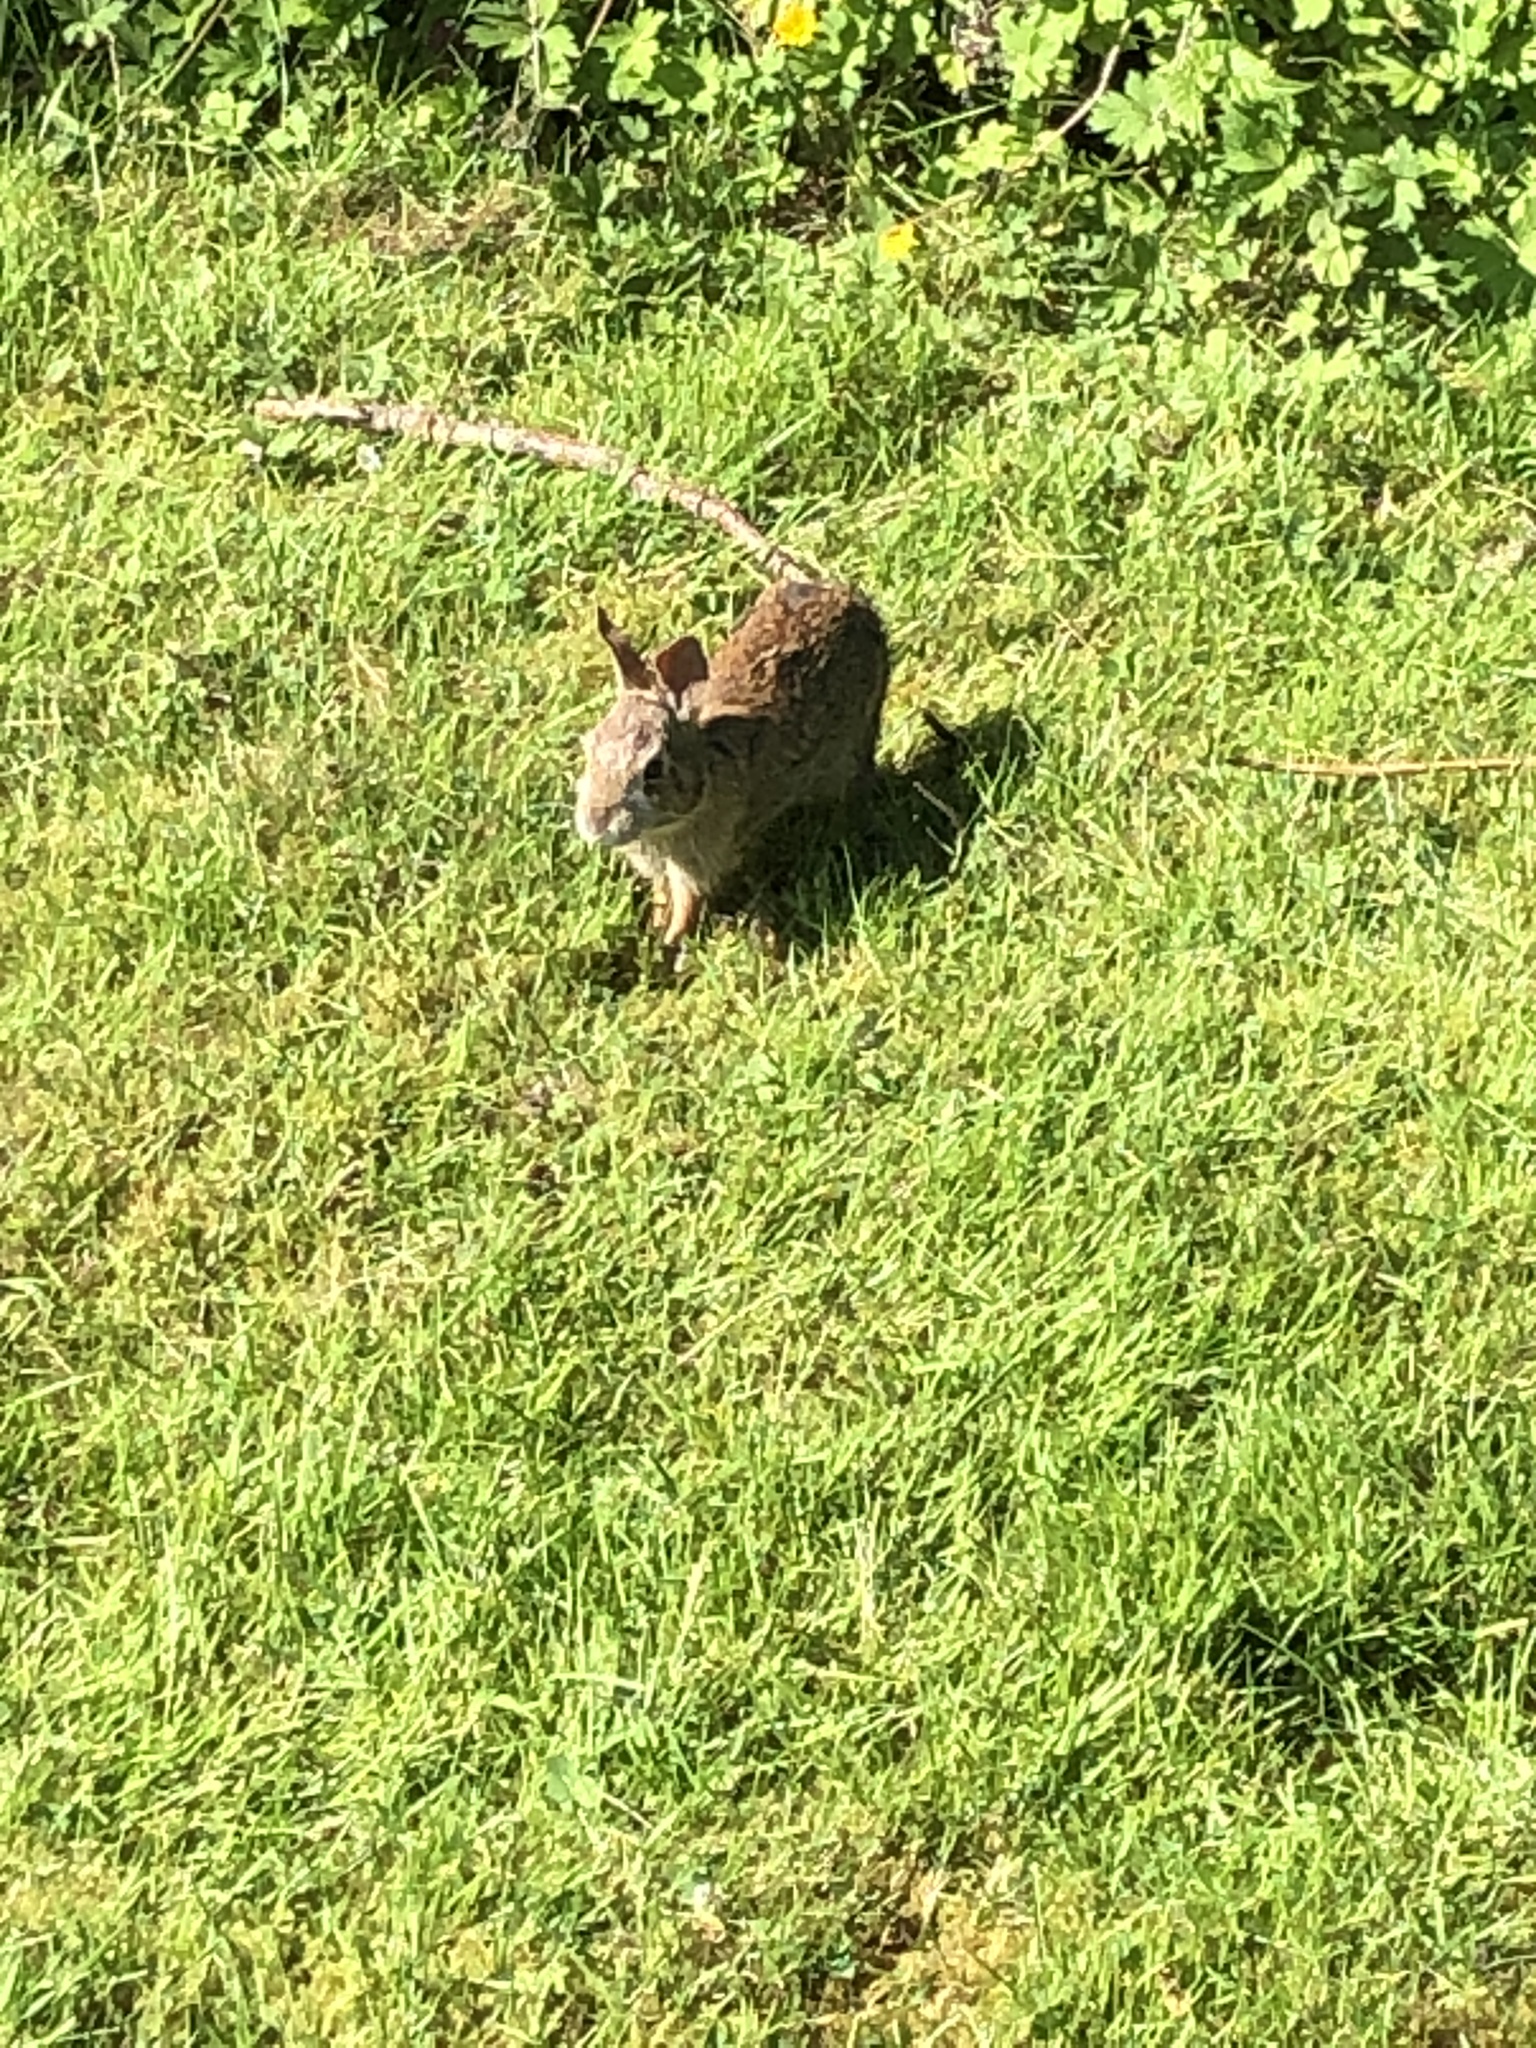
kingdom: Animalia
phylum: Chordata
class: Mammalia
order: Lagomorpha
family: Leporidae
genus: Sylvilagus
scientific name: Sylvilagus floridanus
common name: Eastern cottontail
